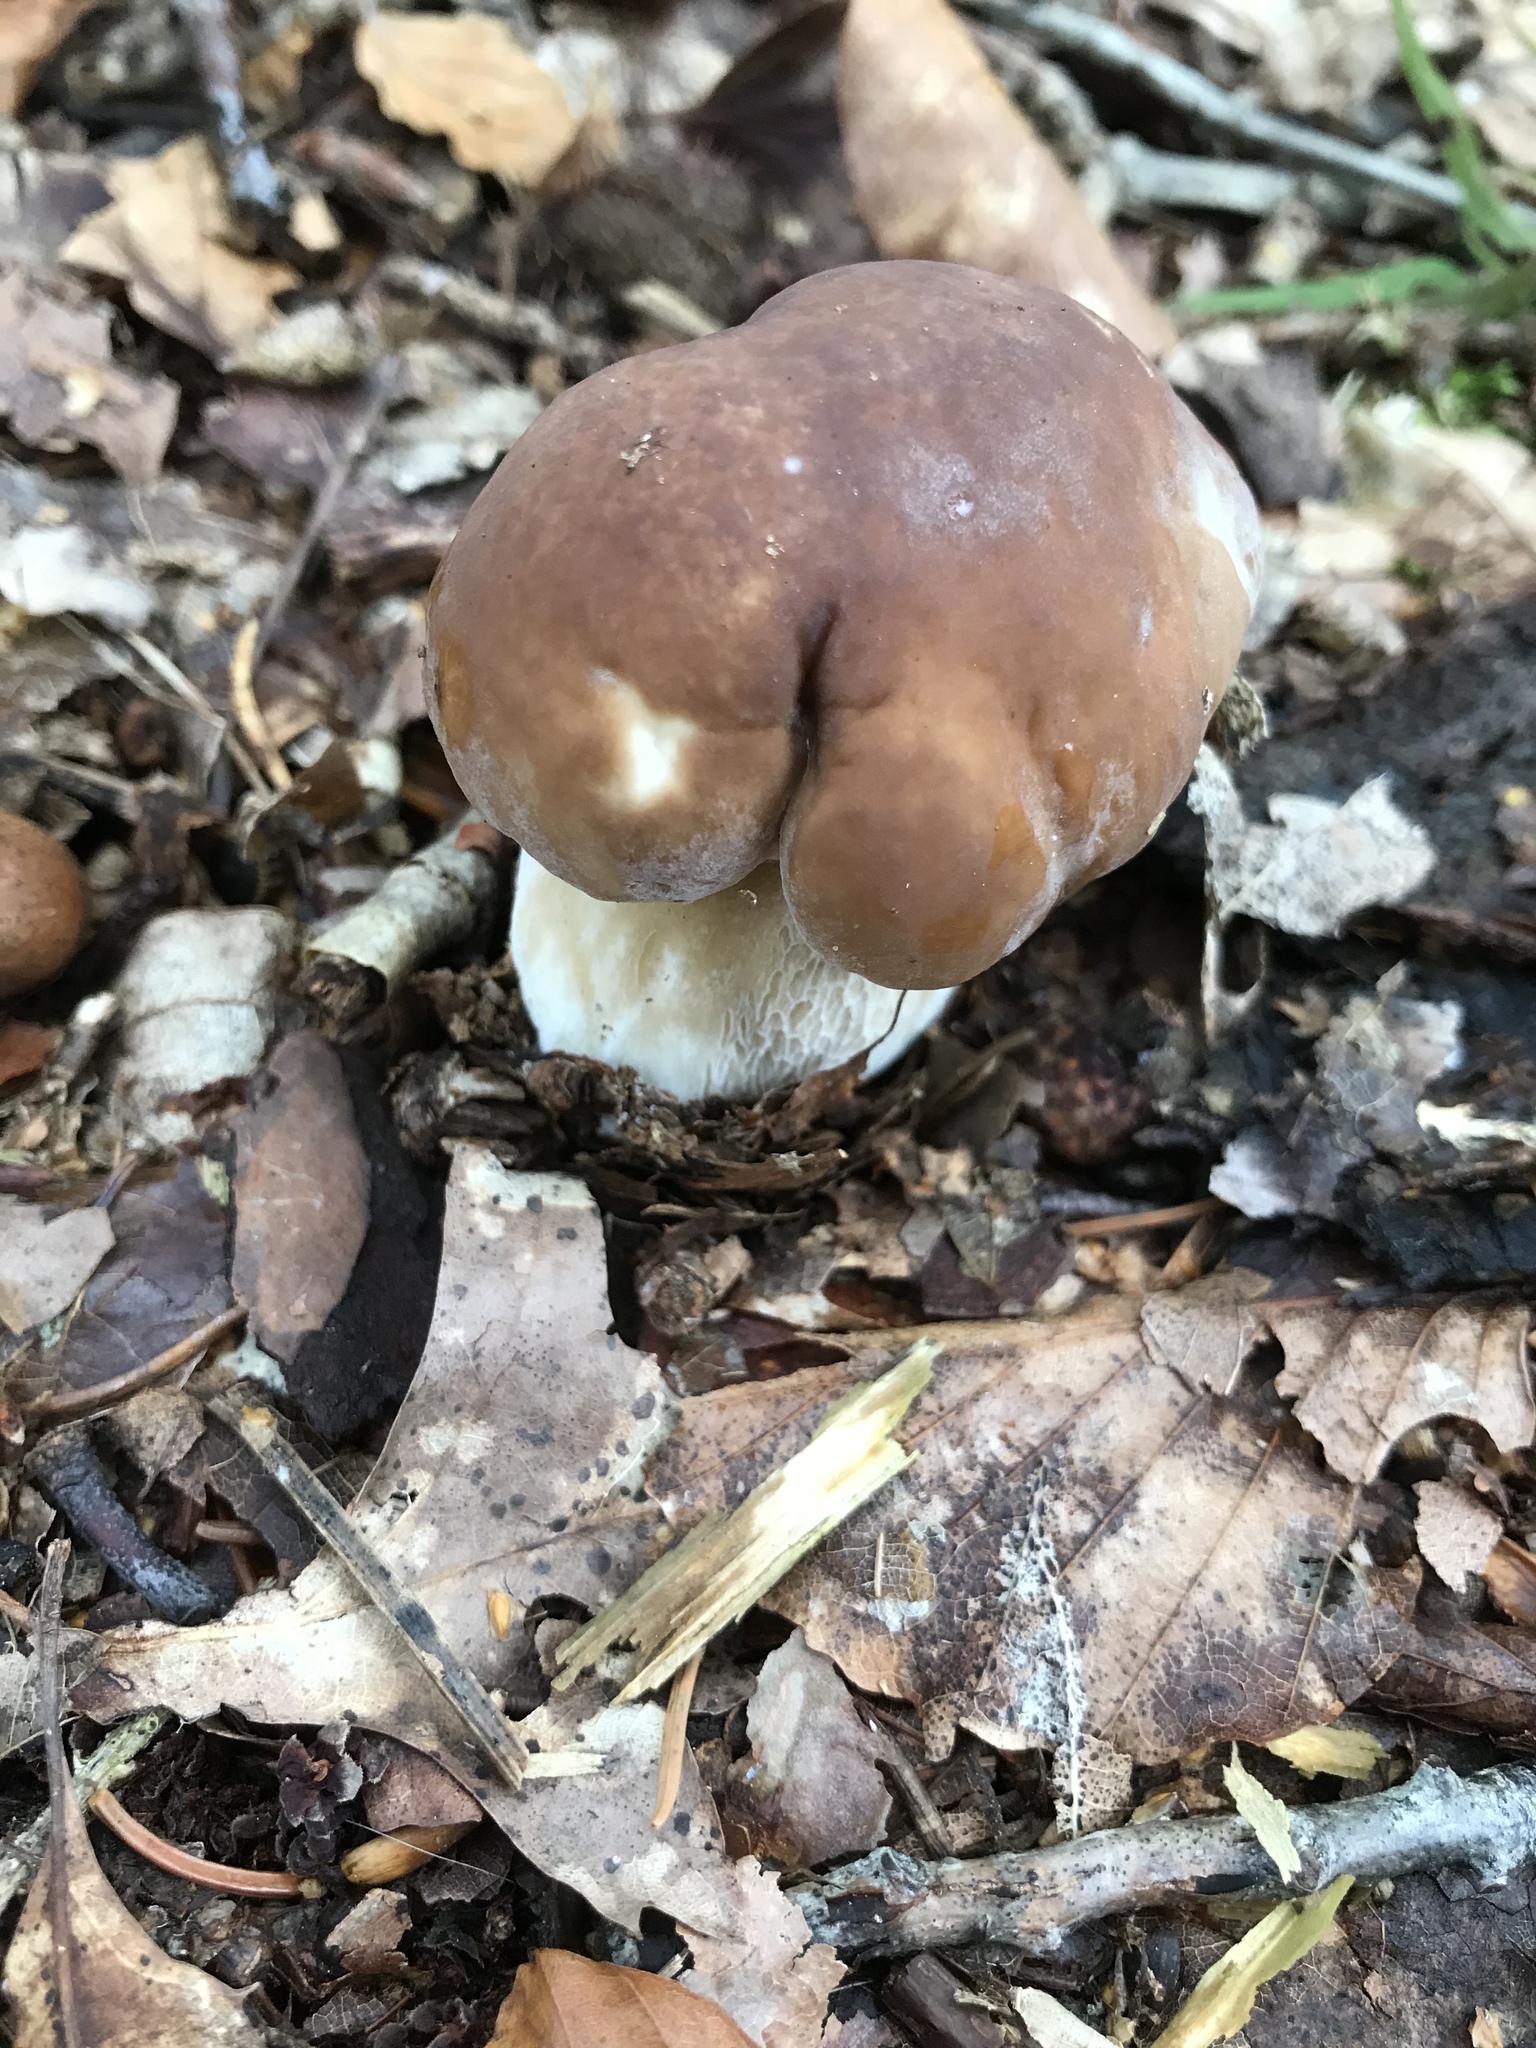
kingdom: Fungi
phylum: Basidiomycota
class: Agaricomycetes
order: Boletales
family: Boletaceae
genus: Boletus
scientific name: Boletus edulis
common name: Cep
